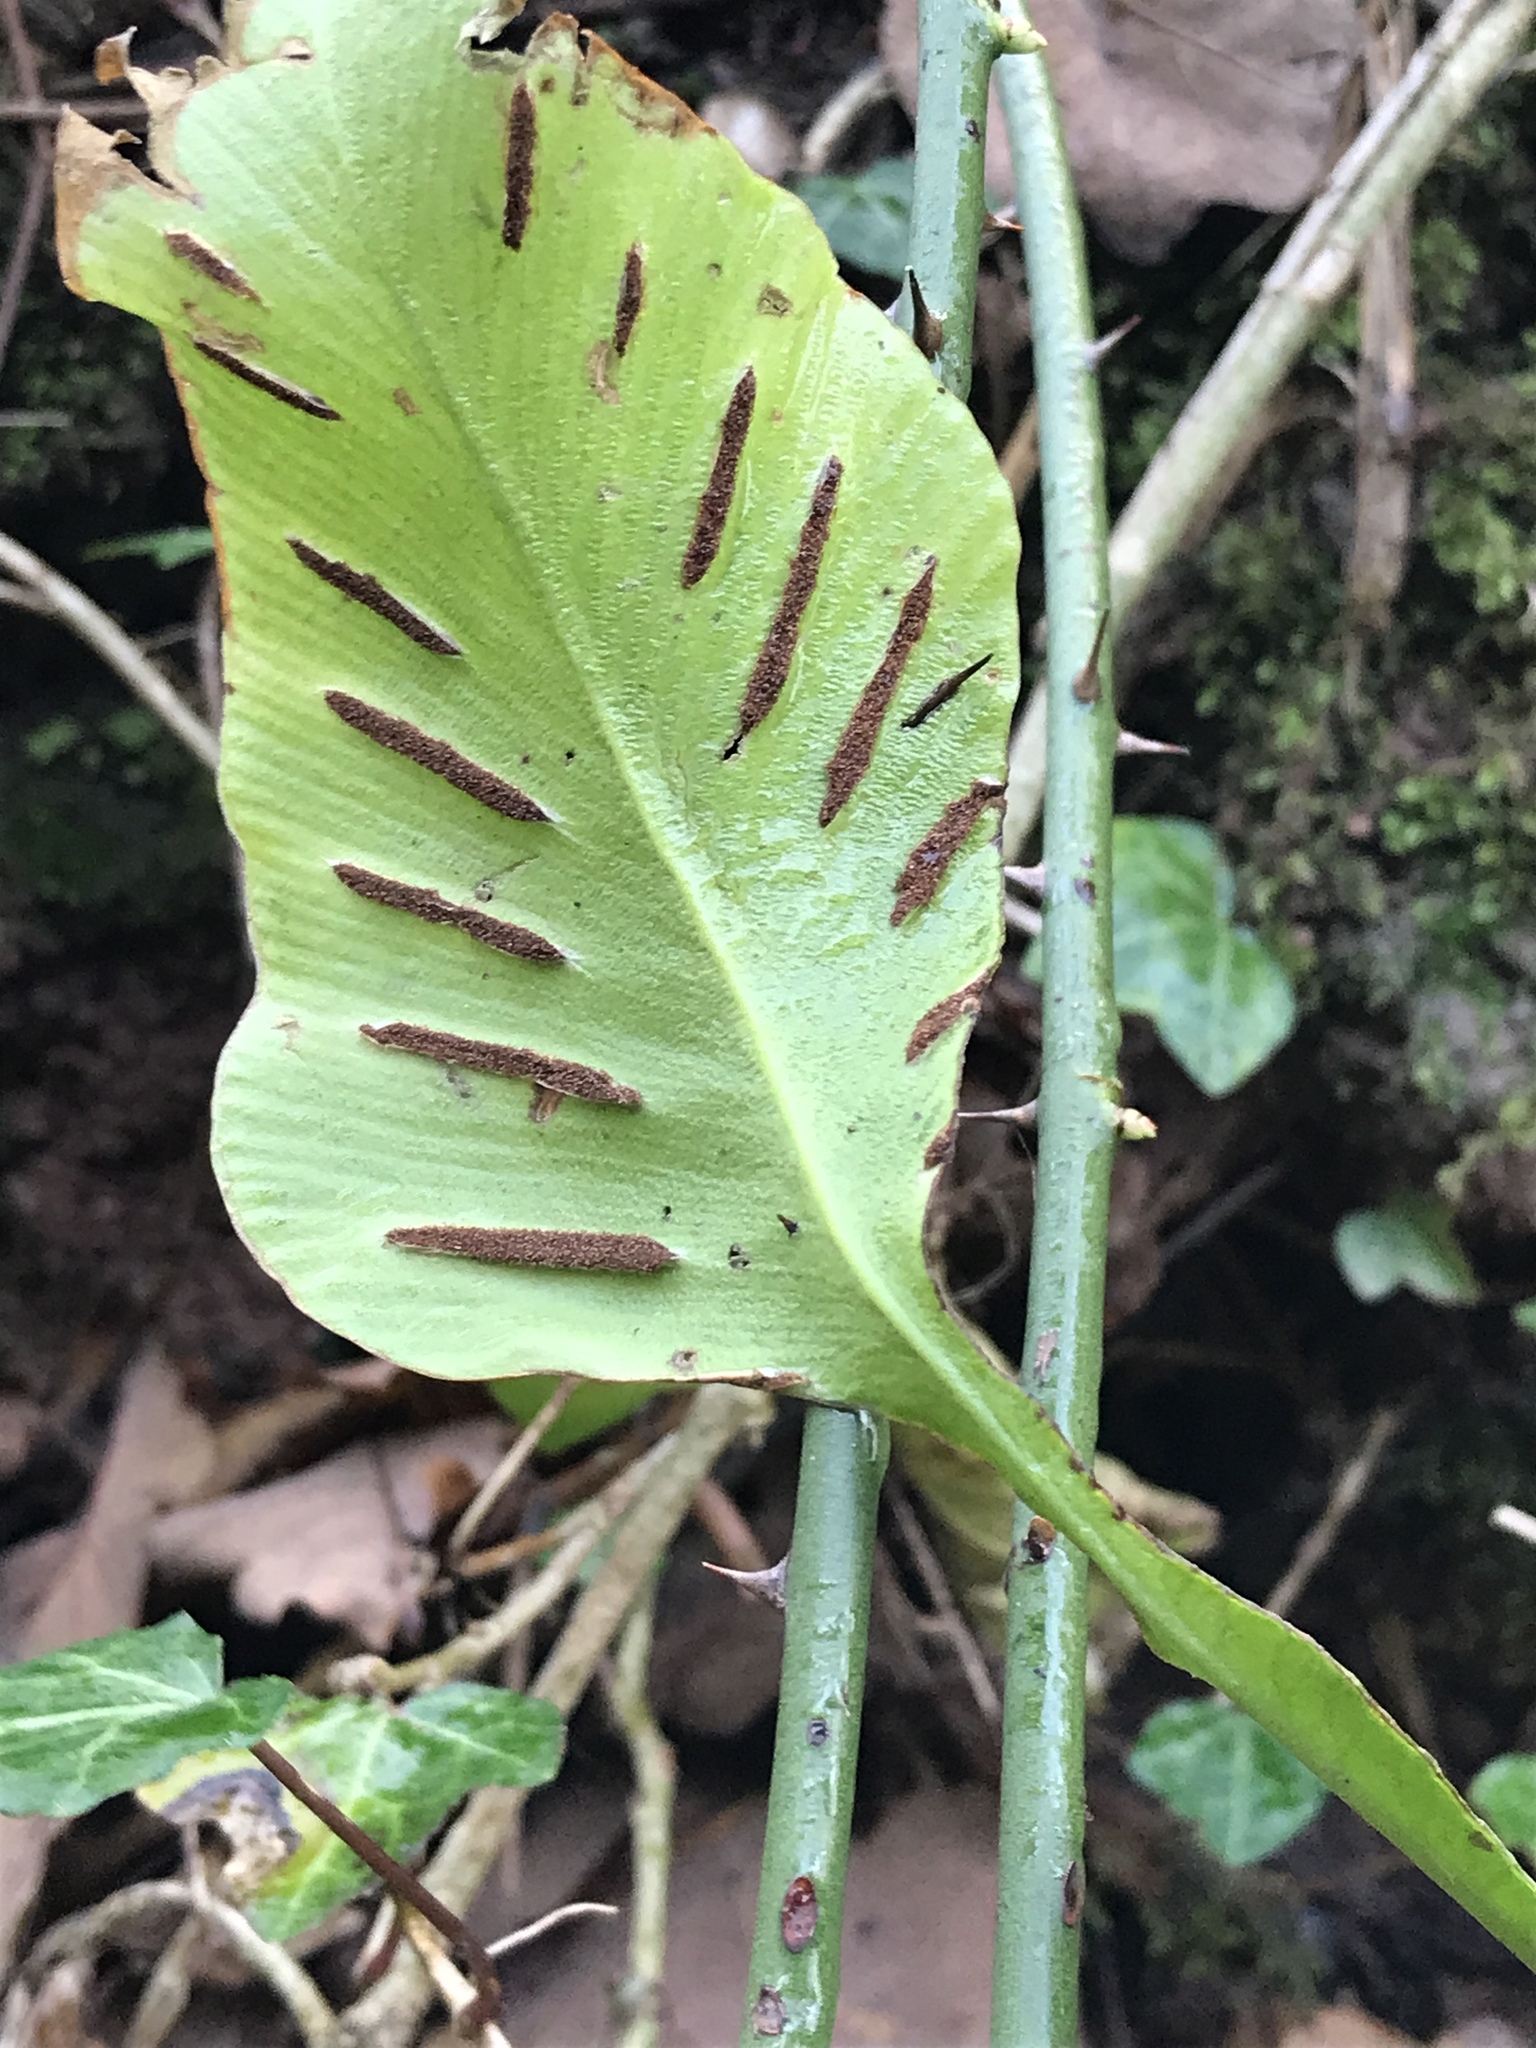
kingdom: Plantae
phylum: Tracheophyta
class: Polypodiopsida
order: Polypodiales
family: Aspleniaceae
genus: Asplenium
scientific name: Asplenium scolopendrium
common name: Hart's-tongue fern
